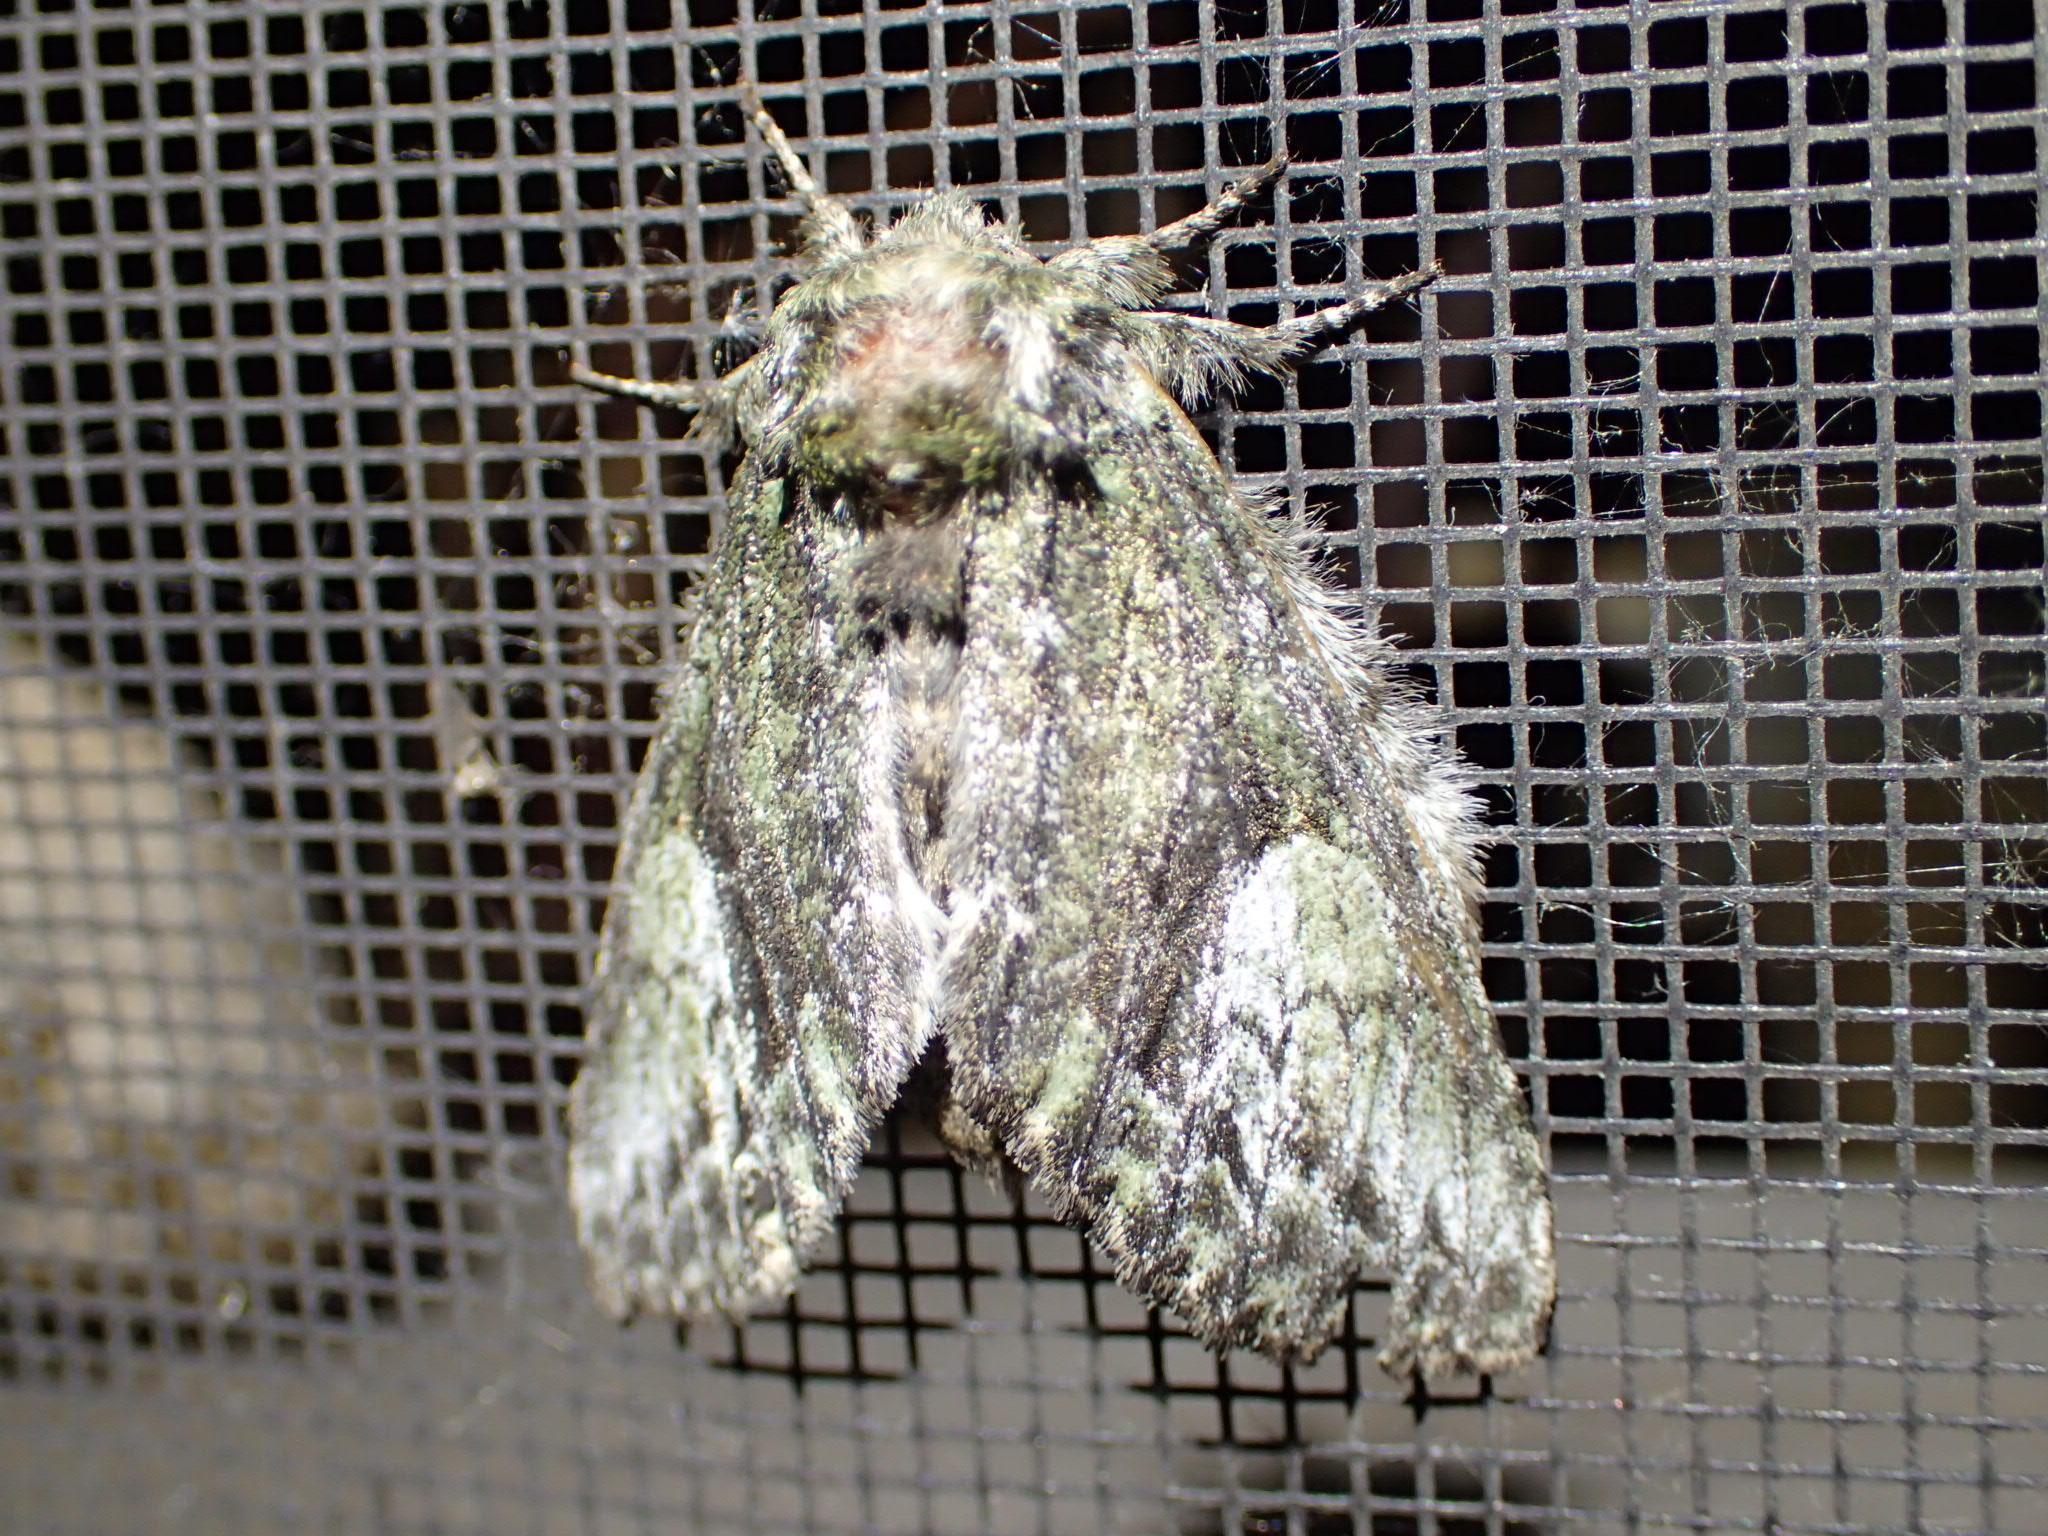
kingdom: Animalia
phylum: Arthropoda
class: Insecta
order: Lepidoptera
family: Notodontidae
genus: Heterocampa
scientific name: Heterocampa
